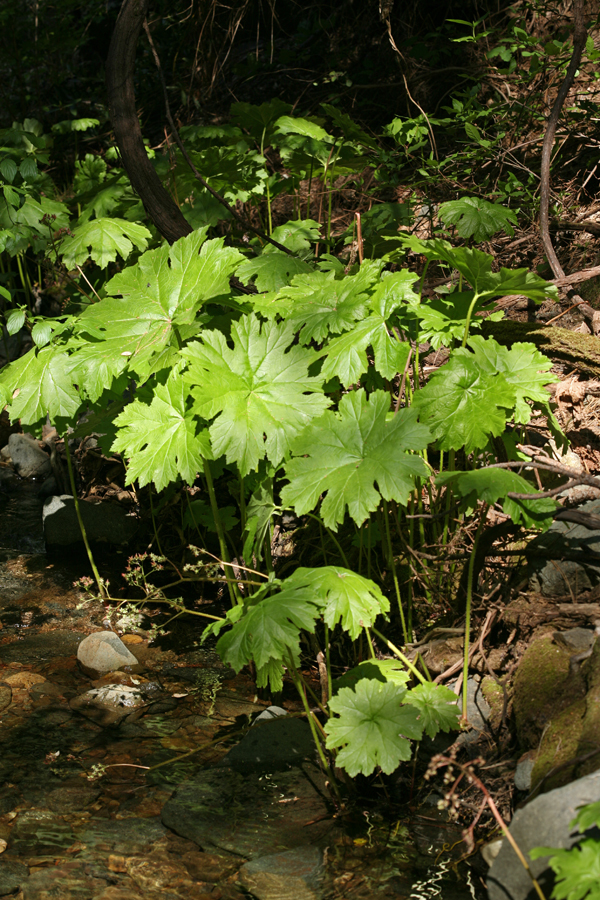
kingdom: Plantae
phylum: Tracheophyta
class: Magnoliopsida
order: Saxifragales
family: Saxifragaceae
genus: Darmera
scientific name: Darmera peltata
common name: Indian-rhubarb
